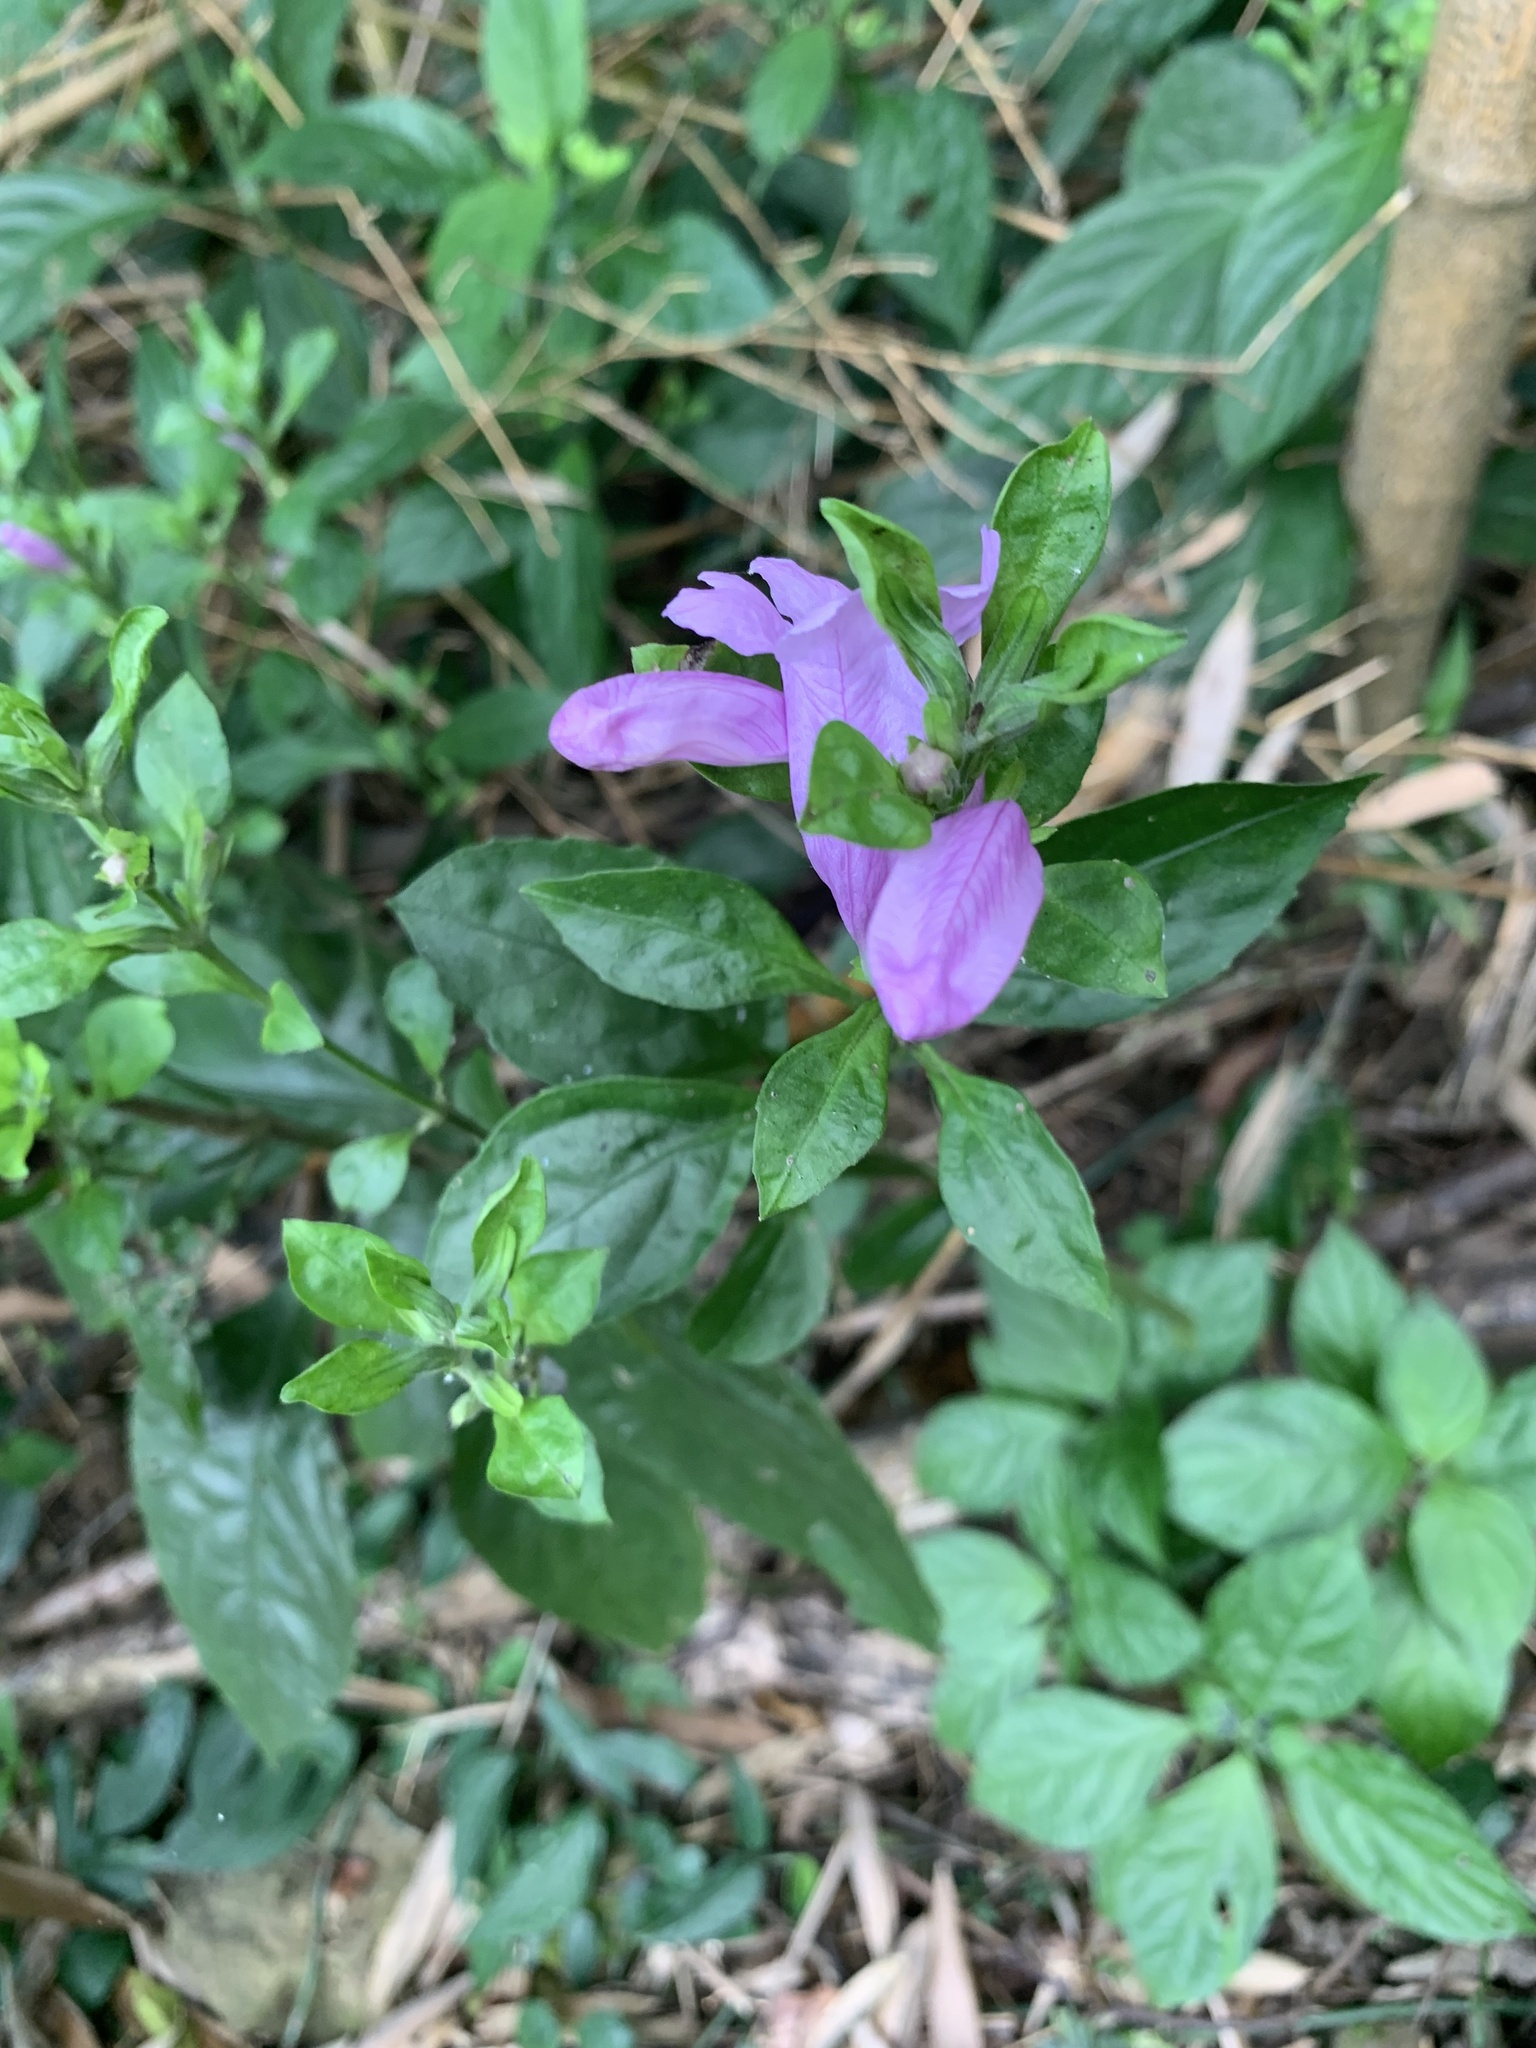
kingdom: Plantae
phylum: Tracheophyta
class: Magnoliopsida
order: Lamiales
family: Acanthaceae
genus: Strobilanthes
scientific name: Strobilanthes cusia
